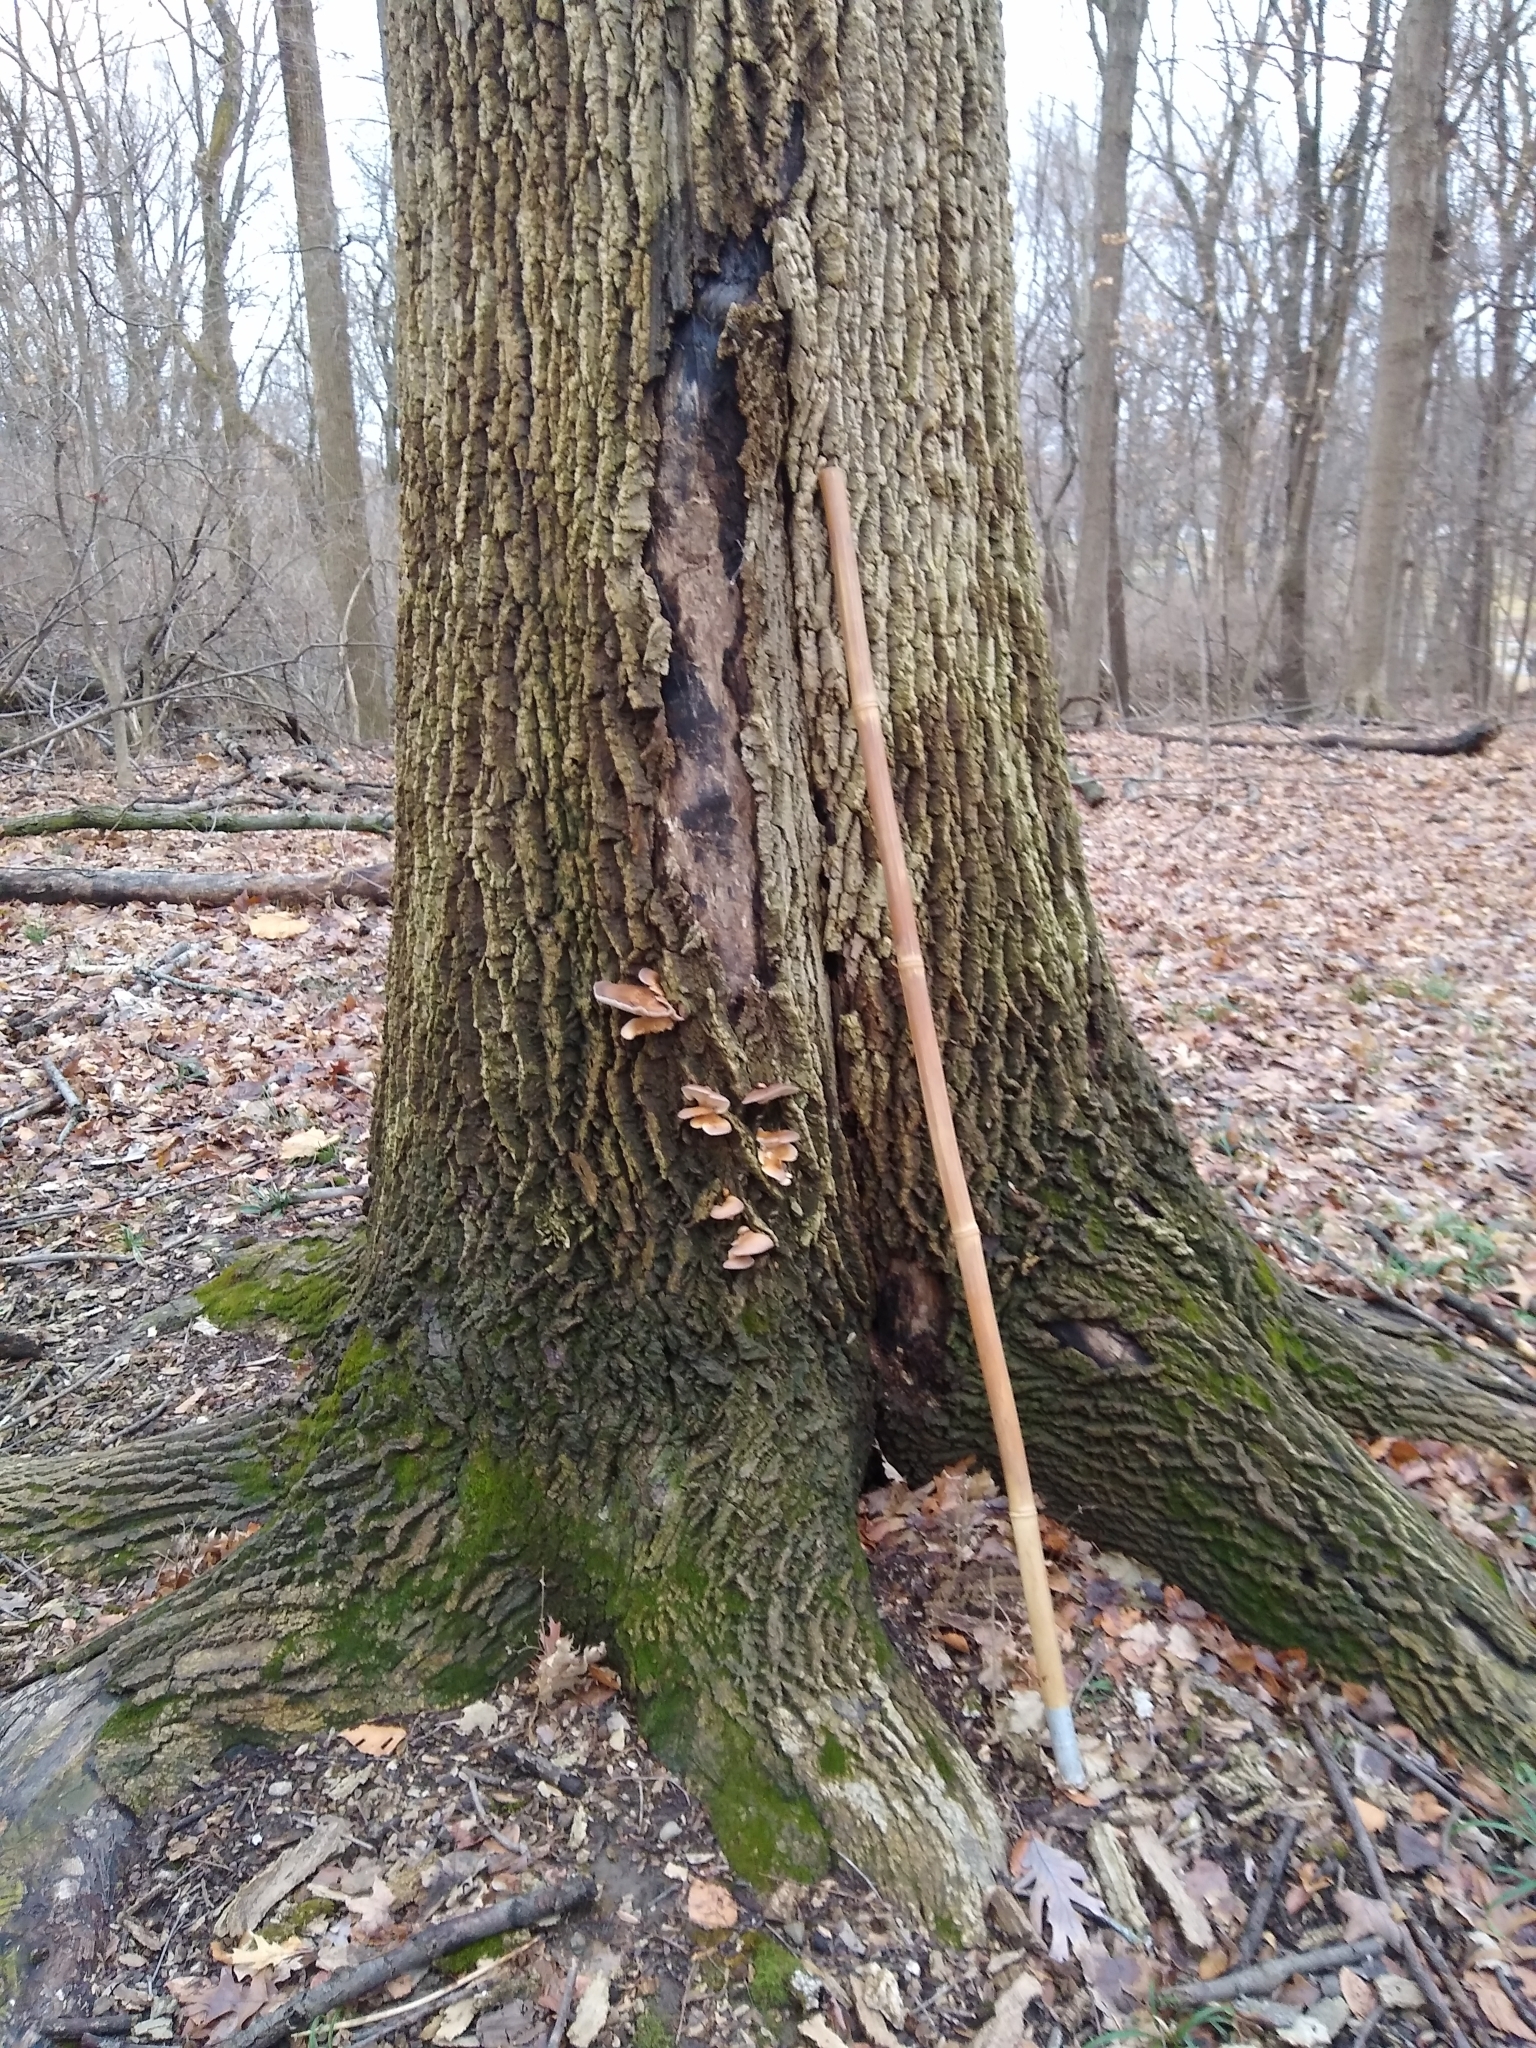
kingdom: Fungi
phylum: Basidiomycota
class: Agaricomycetes
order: Agaricales
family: Pleurotaceae
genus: Pleurotus
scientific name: Pleurotus ostreatus
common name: Oyster mushroom
